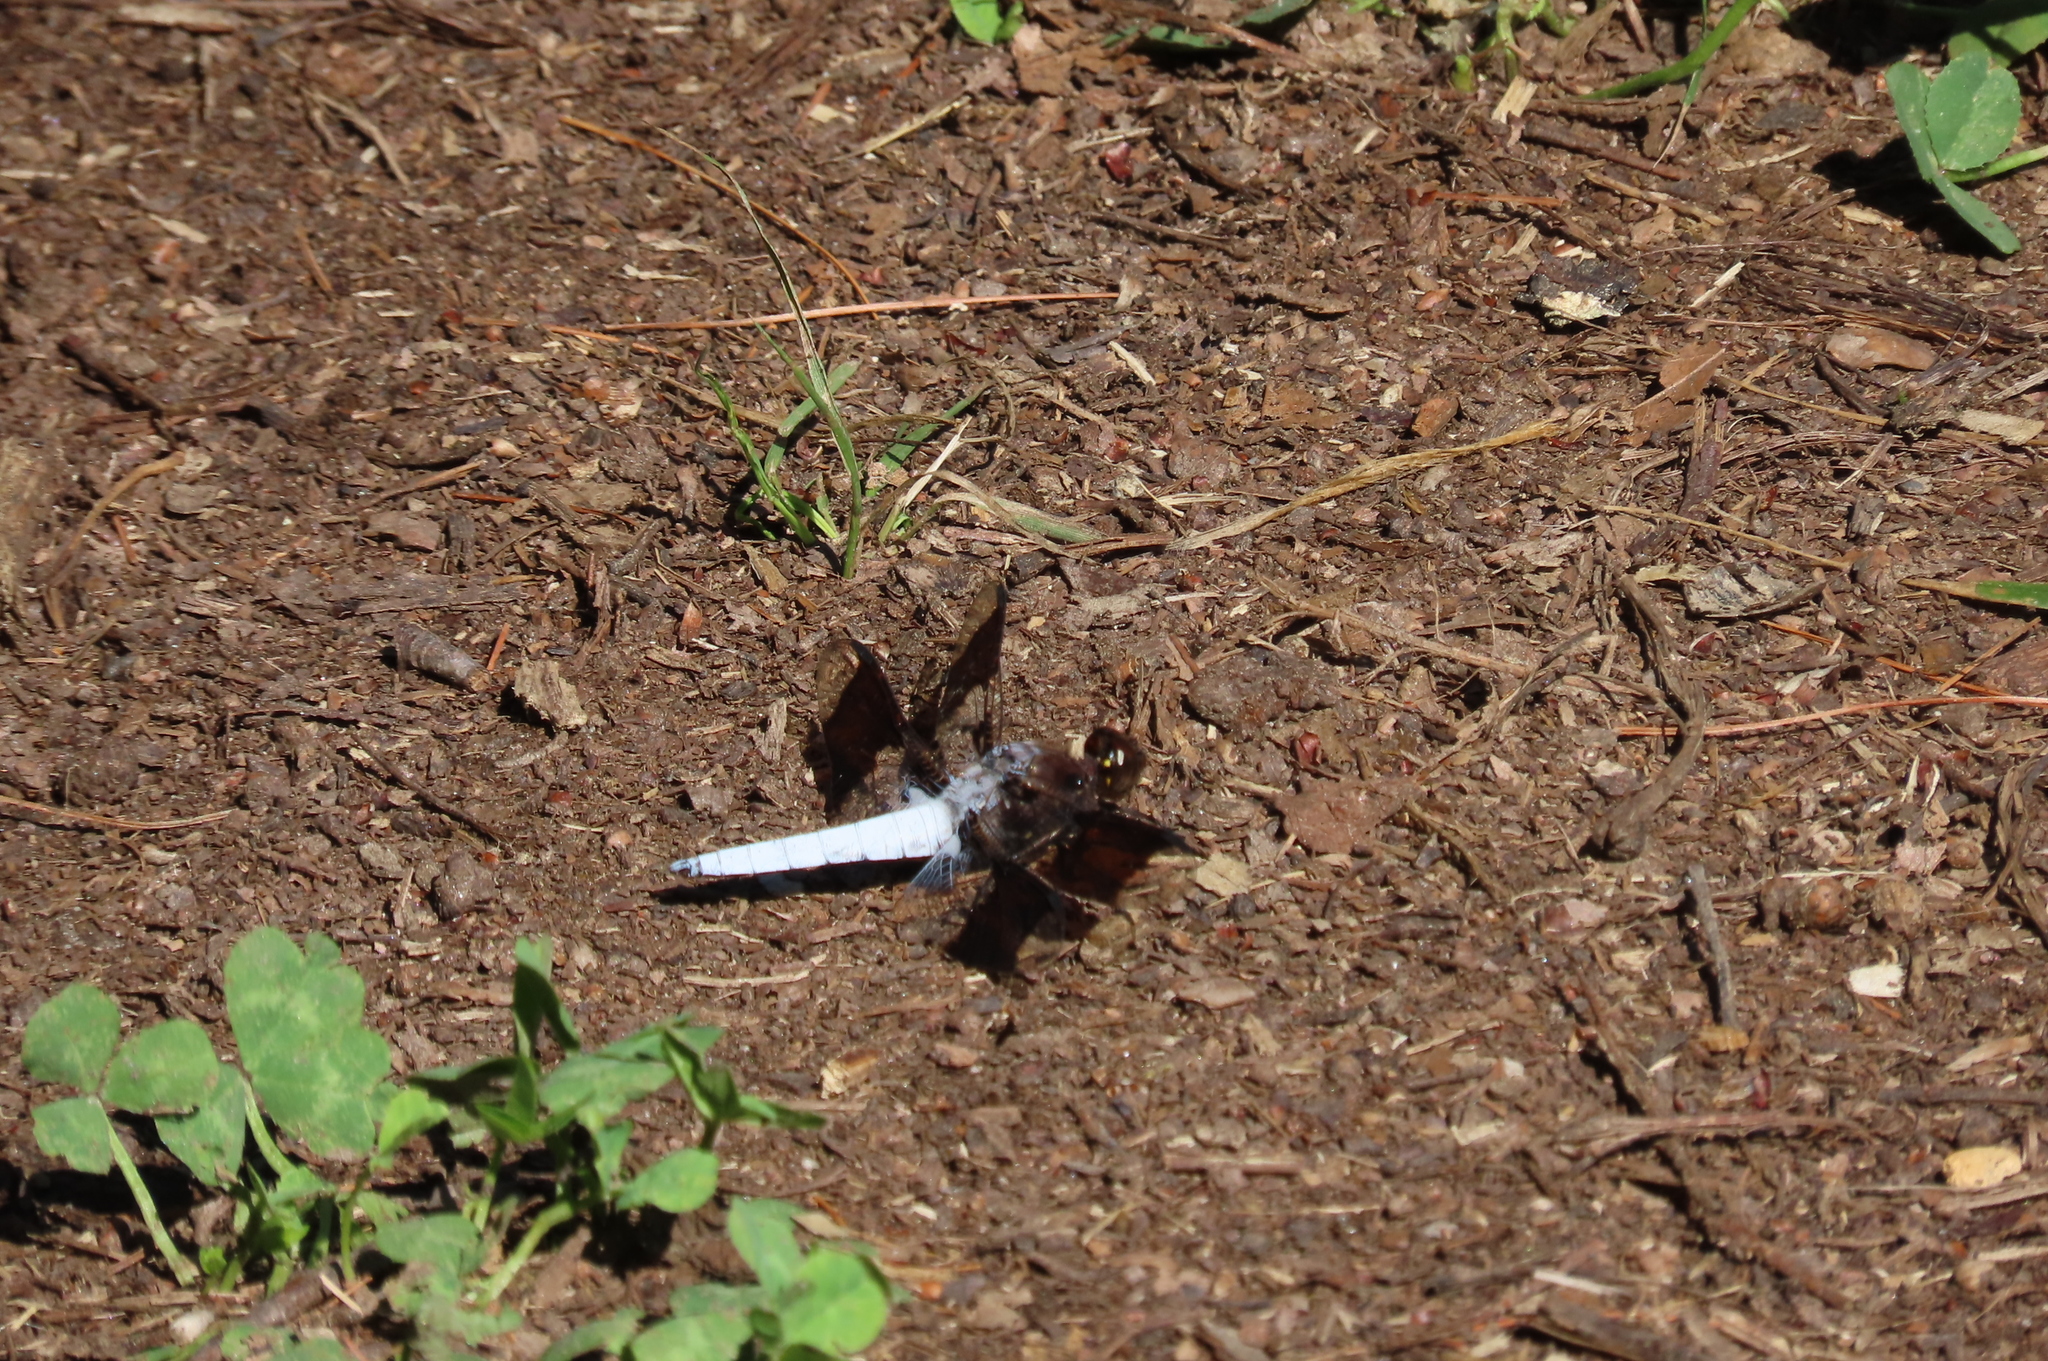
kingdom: Animalia
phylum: Arthropoda
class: Insecta
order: Odonata
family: Libellulidae
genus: Plathemis
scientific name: Plathemis lydia
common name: Common whitetail
